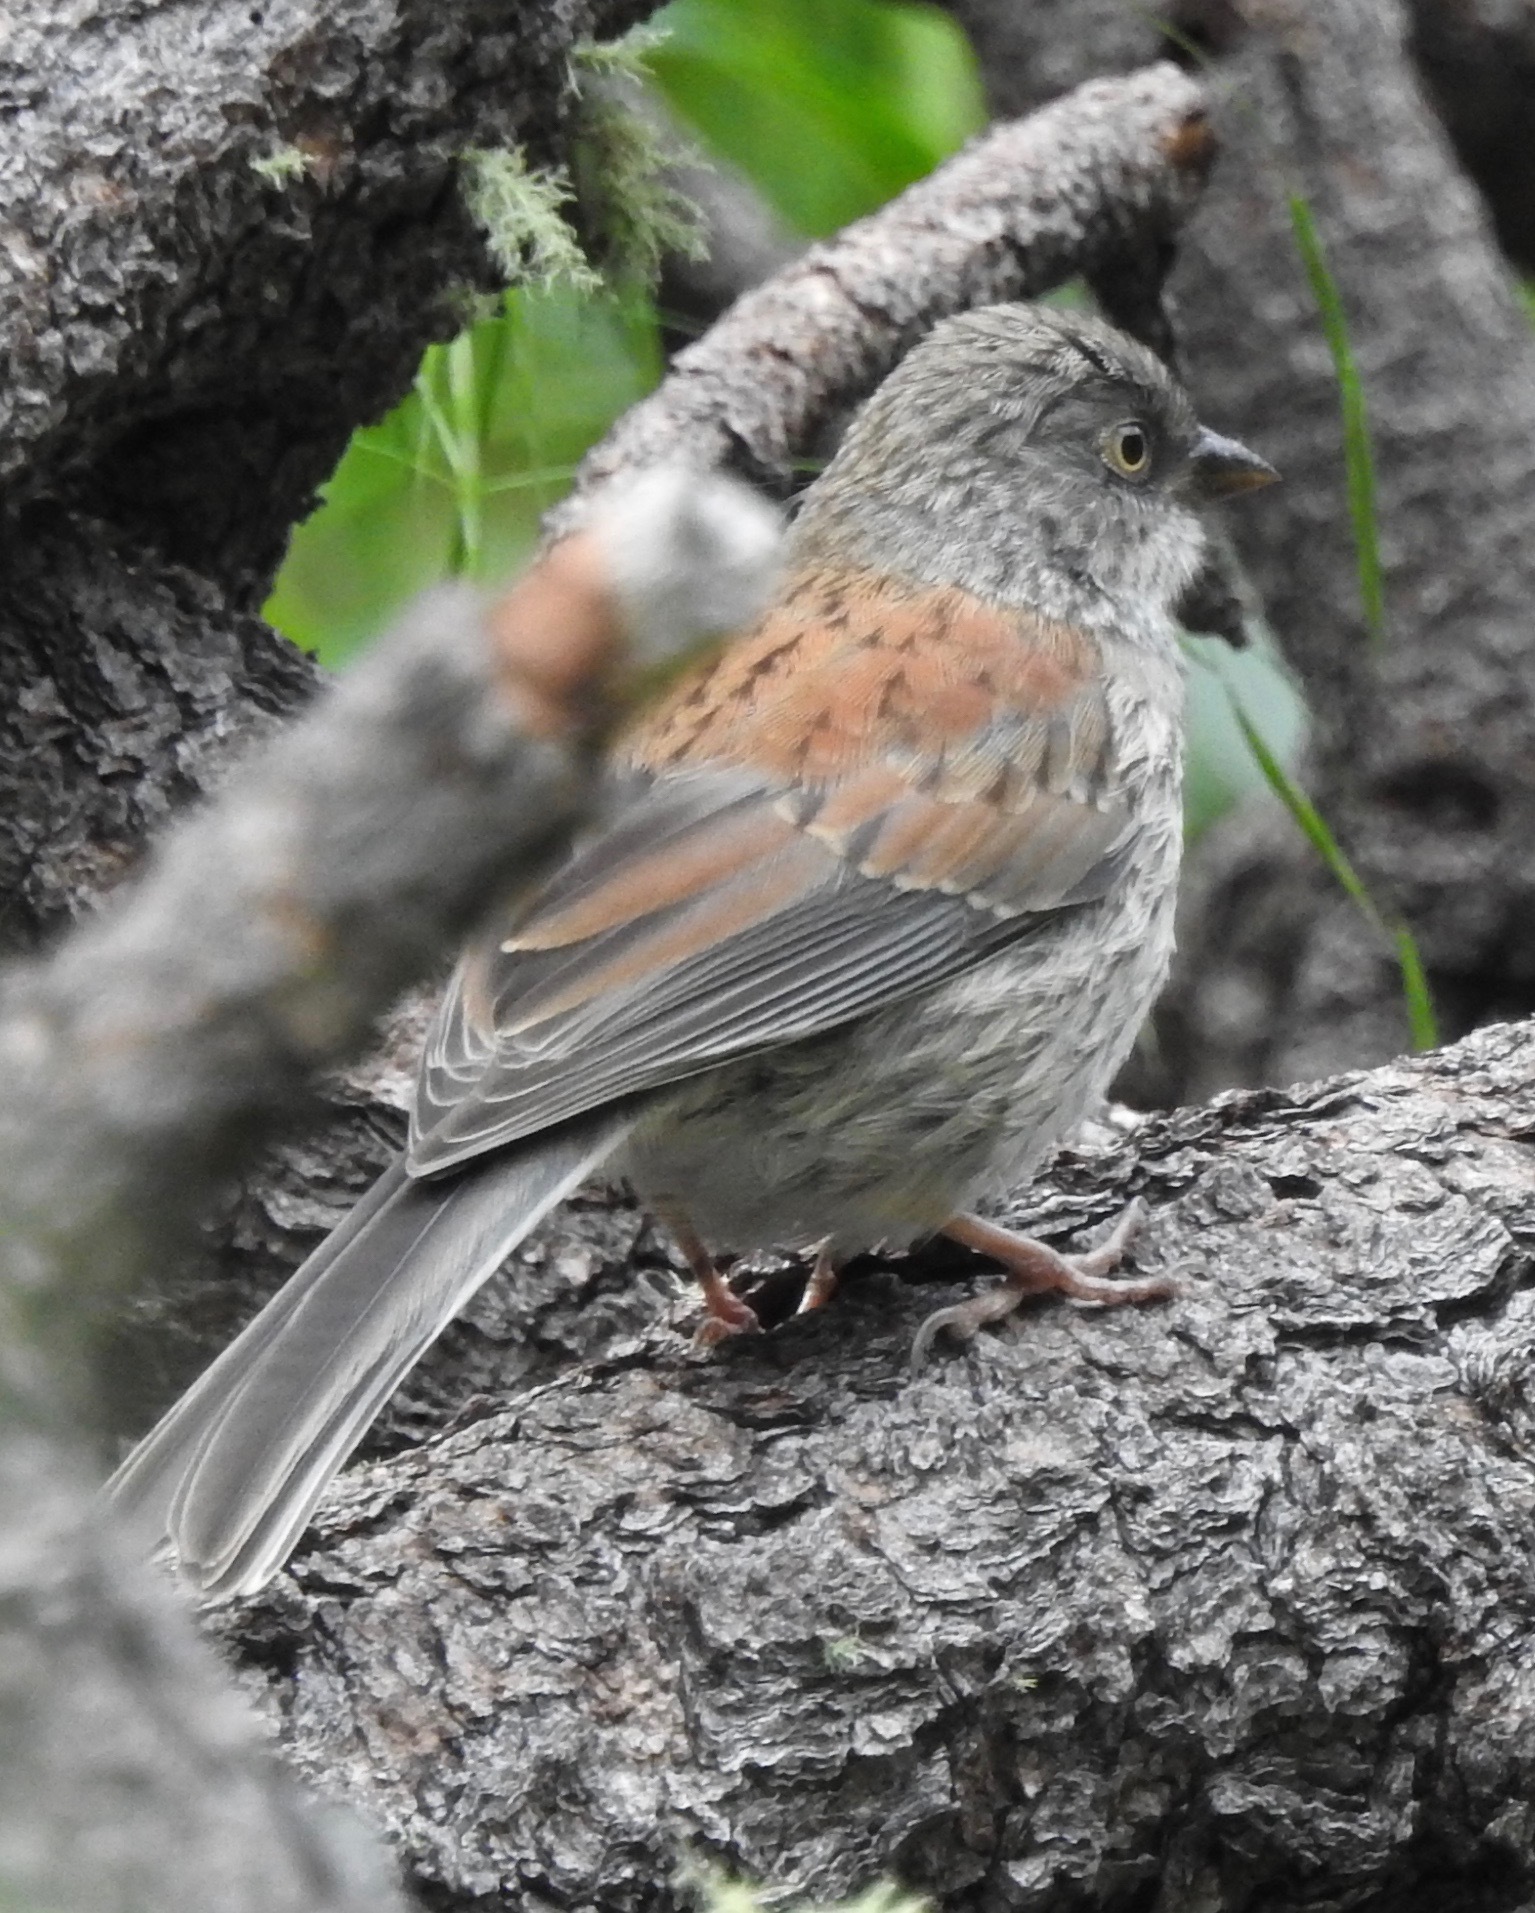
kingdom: Animalia
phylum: Chordata
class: Aves
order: Passeriformes
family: Passerellidae
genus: Junco
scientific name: Junco phaeonotus
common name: Yellow-eyed junco
